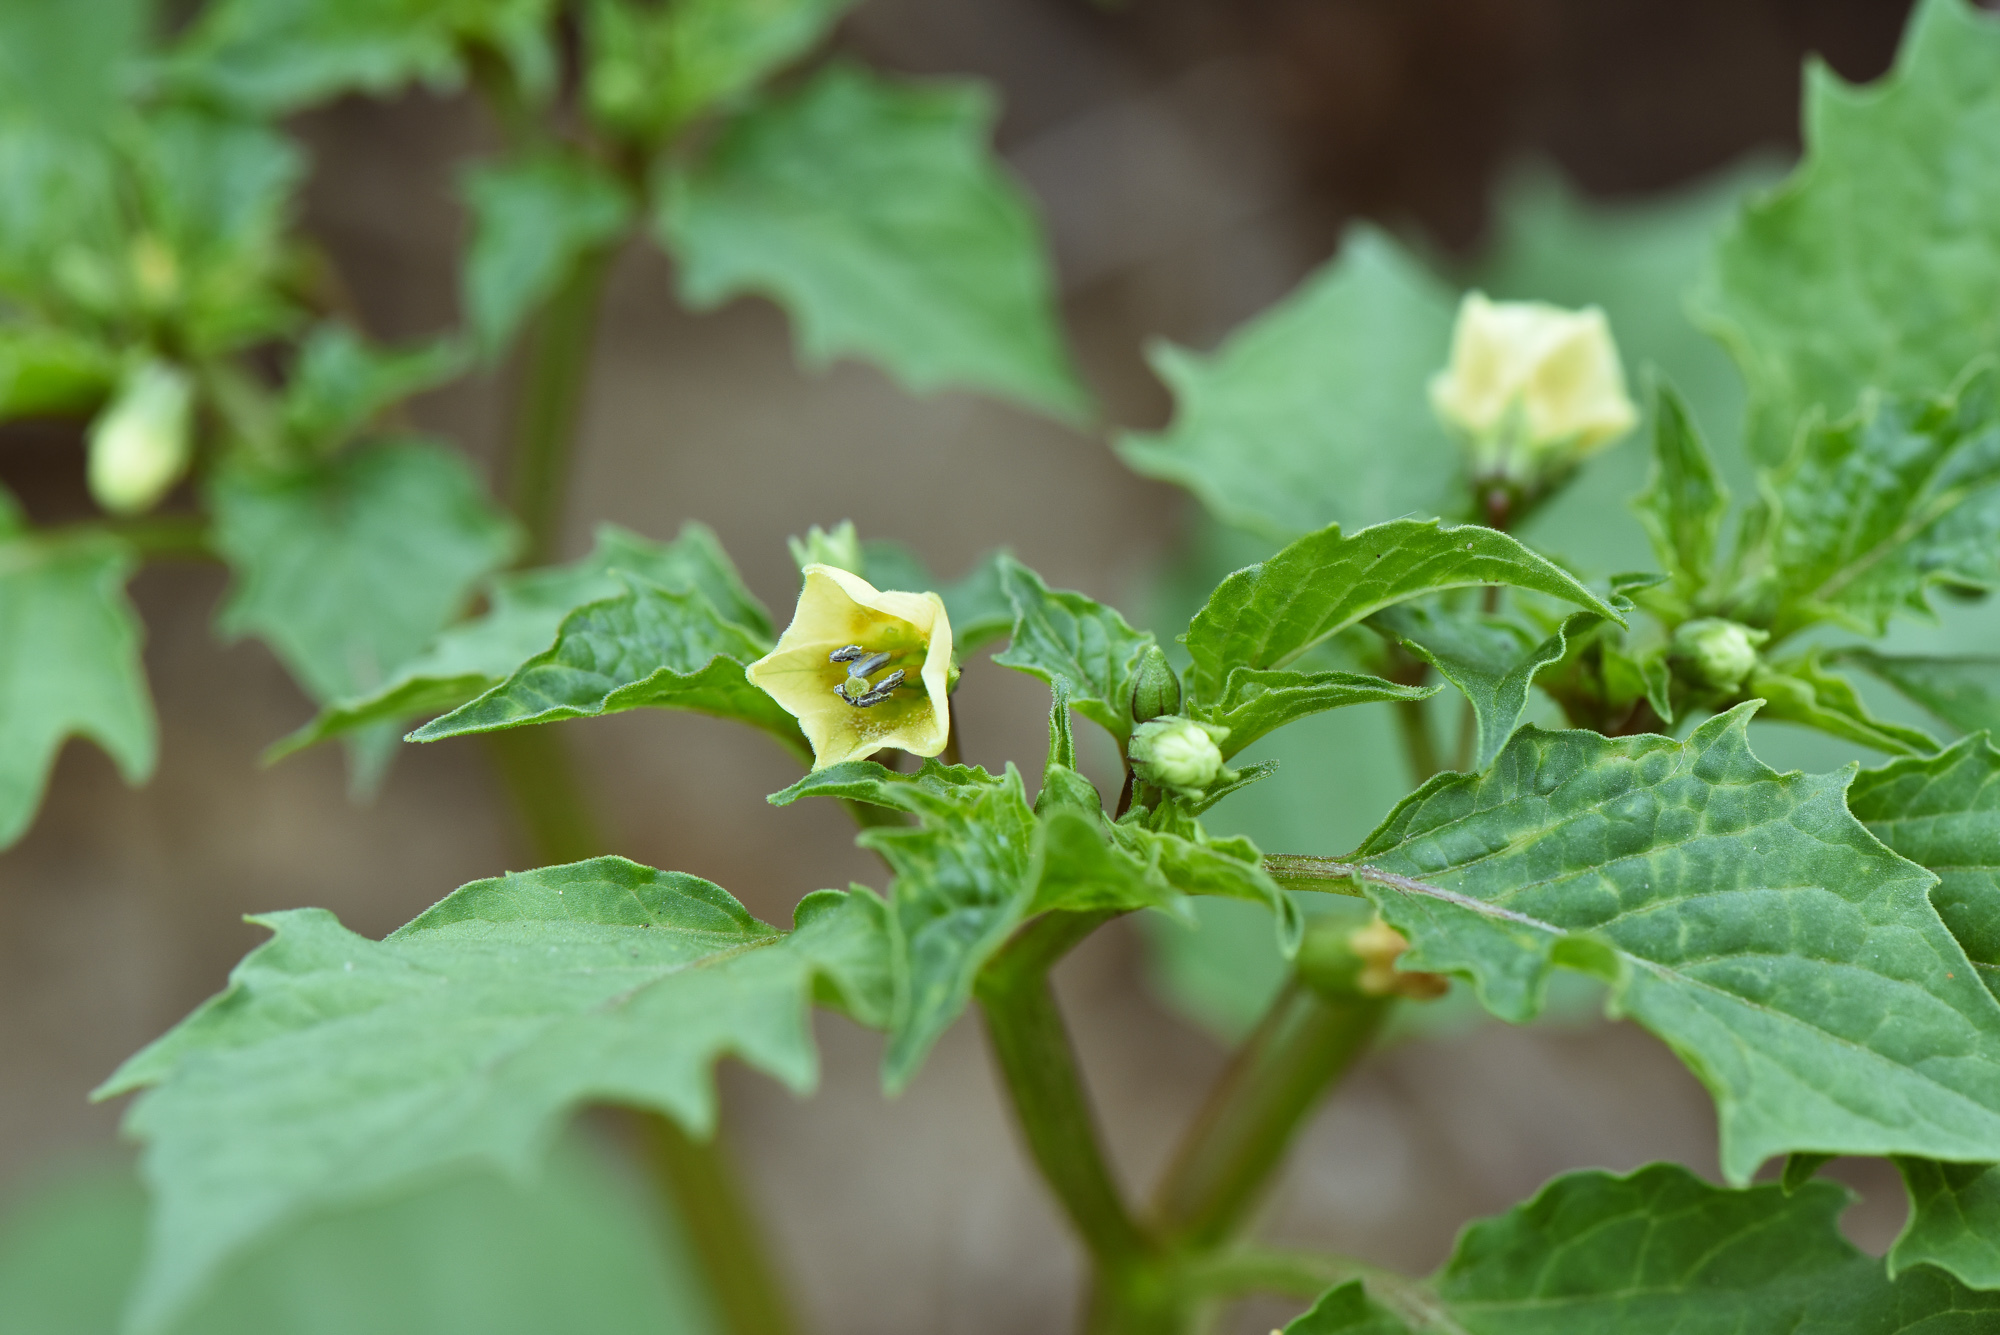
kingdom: Plantae
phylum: Tracheophyta
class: Magnoliopsida
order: Solanales
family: Solanaceae
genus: Physalis
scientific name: Physalis angulata
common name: Angular winter-cherry
